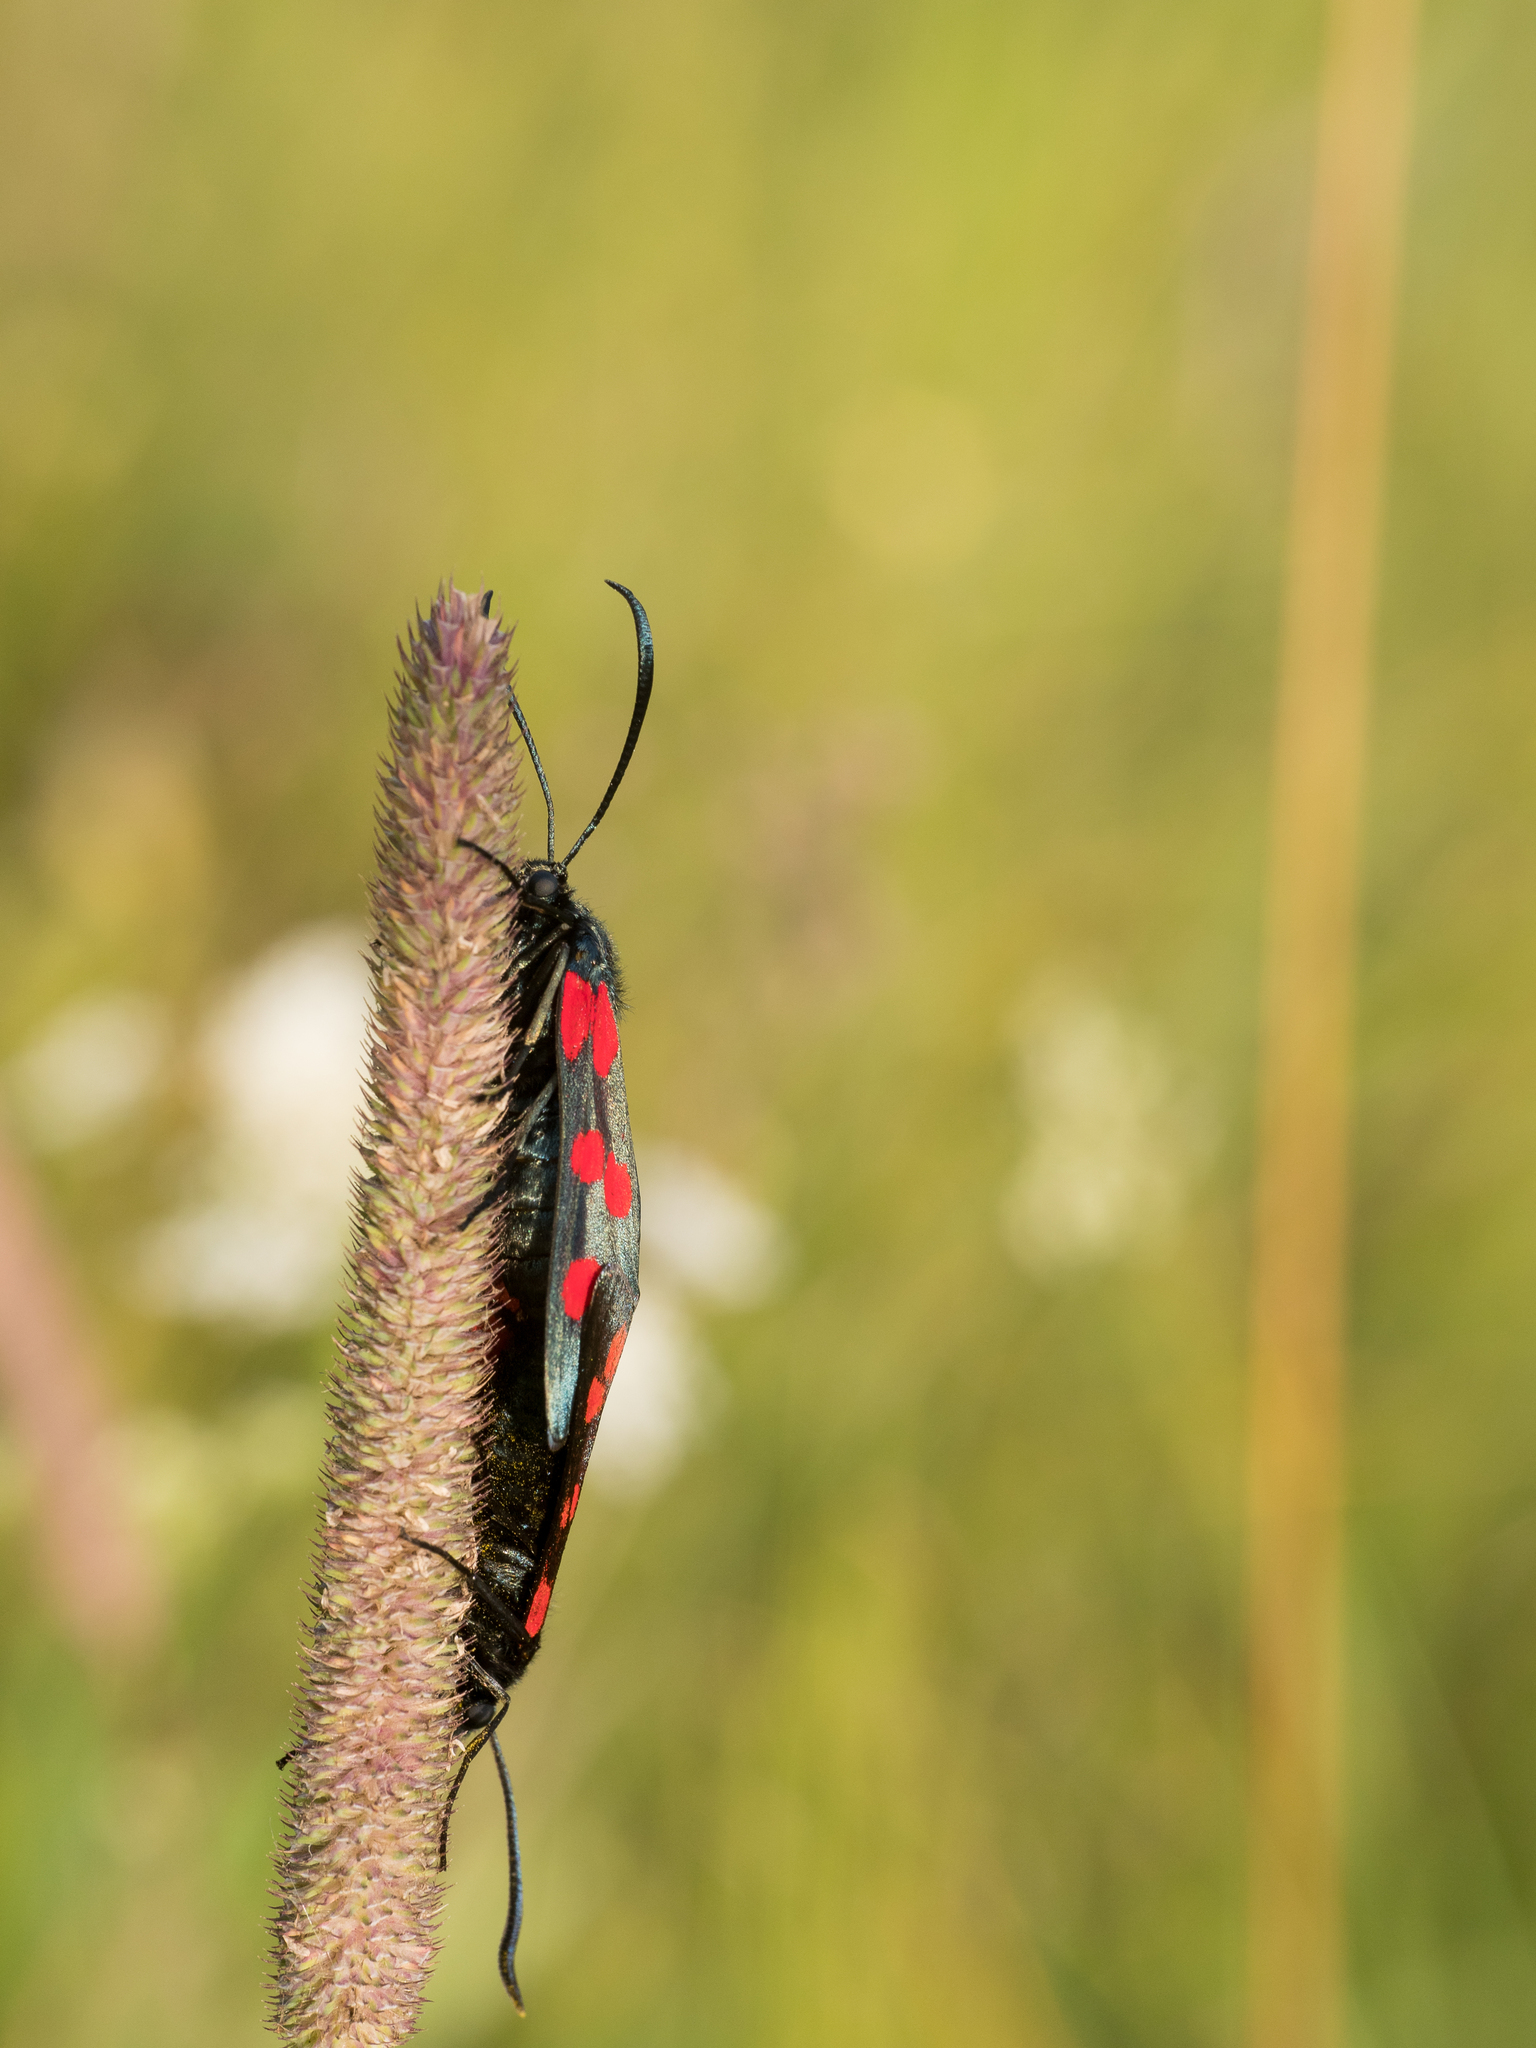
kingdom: Animalia
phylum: Arthropoda
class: Insecta
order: Lepidoptera
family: Zygaenidae
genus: Zygaena
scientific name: Zygaena filipendulae
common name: Six-spot burnet
